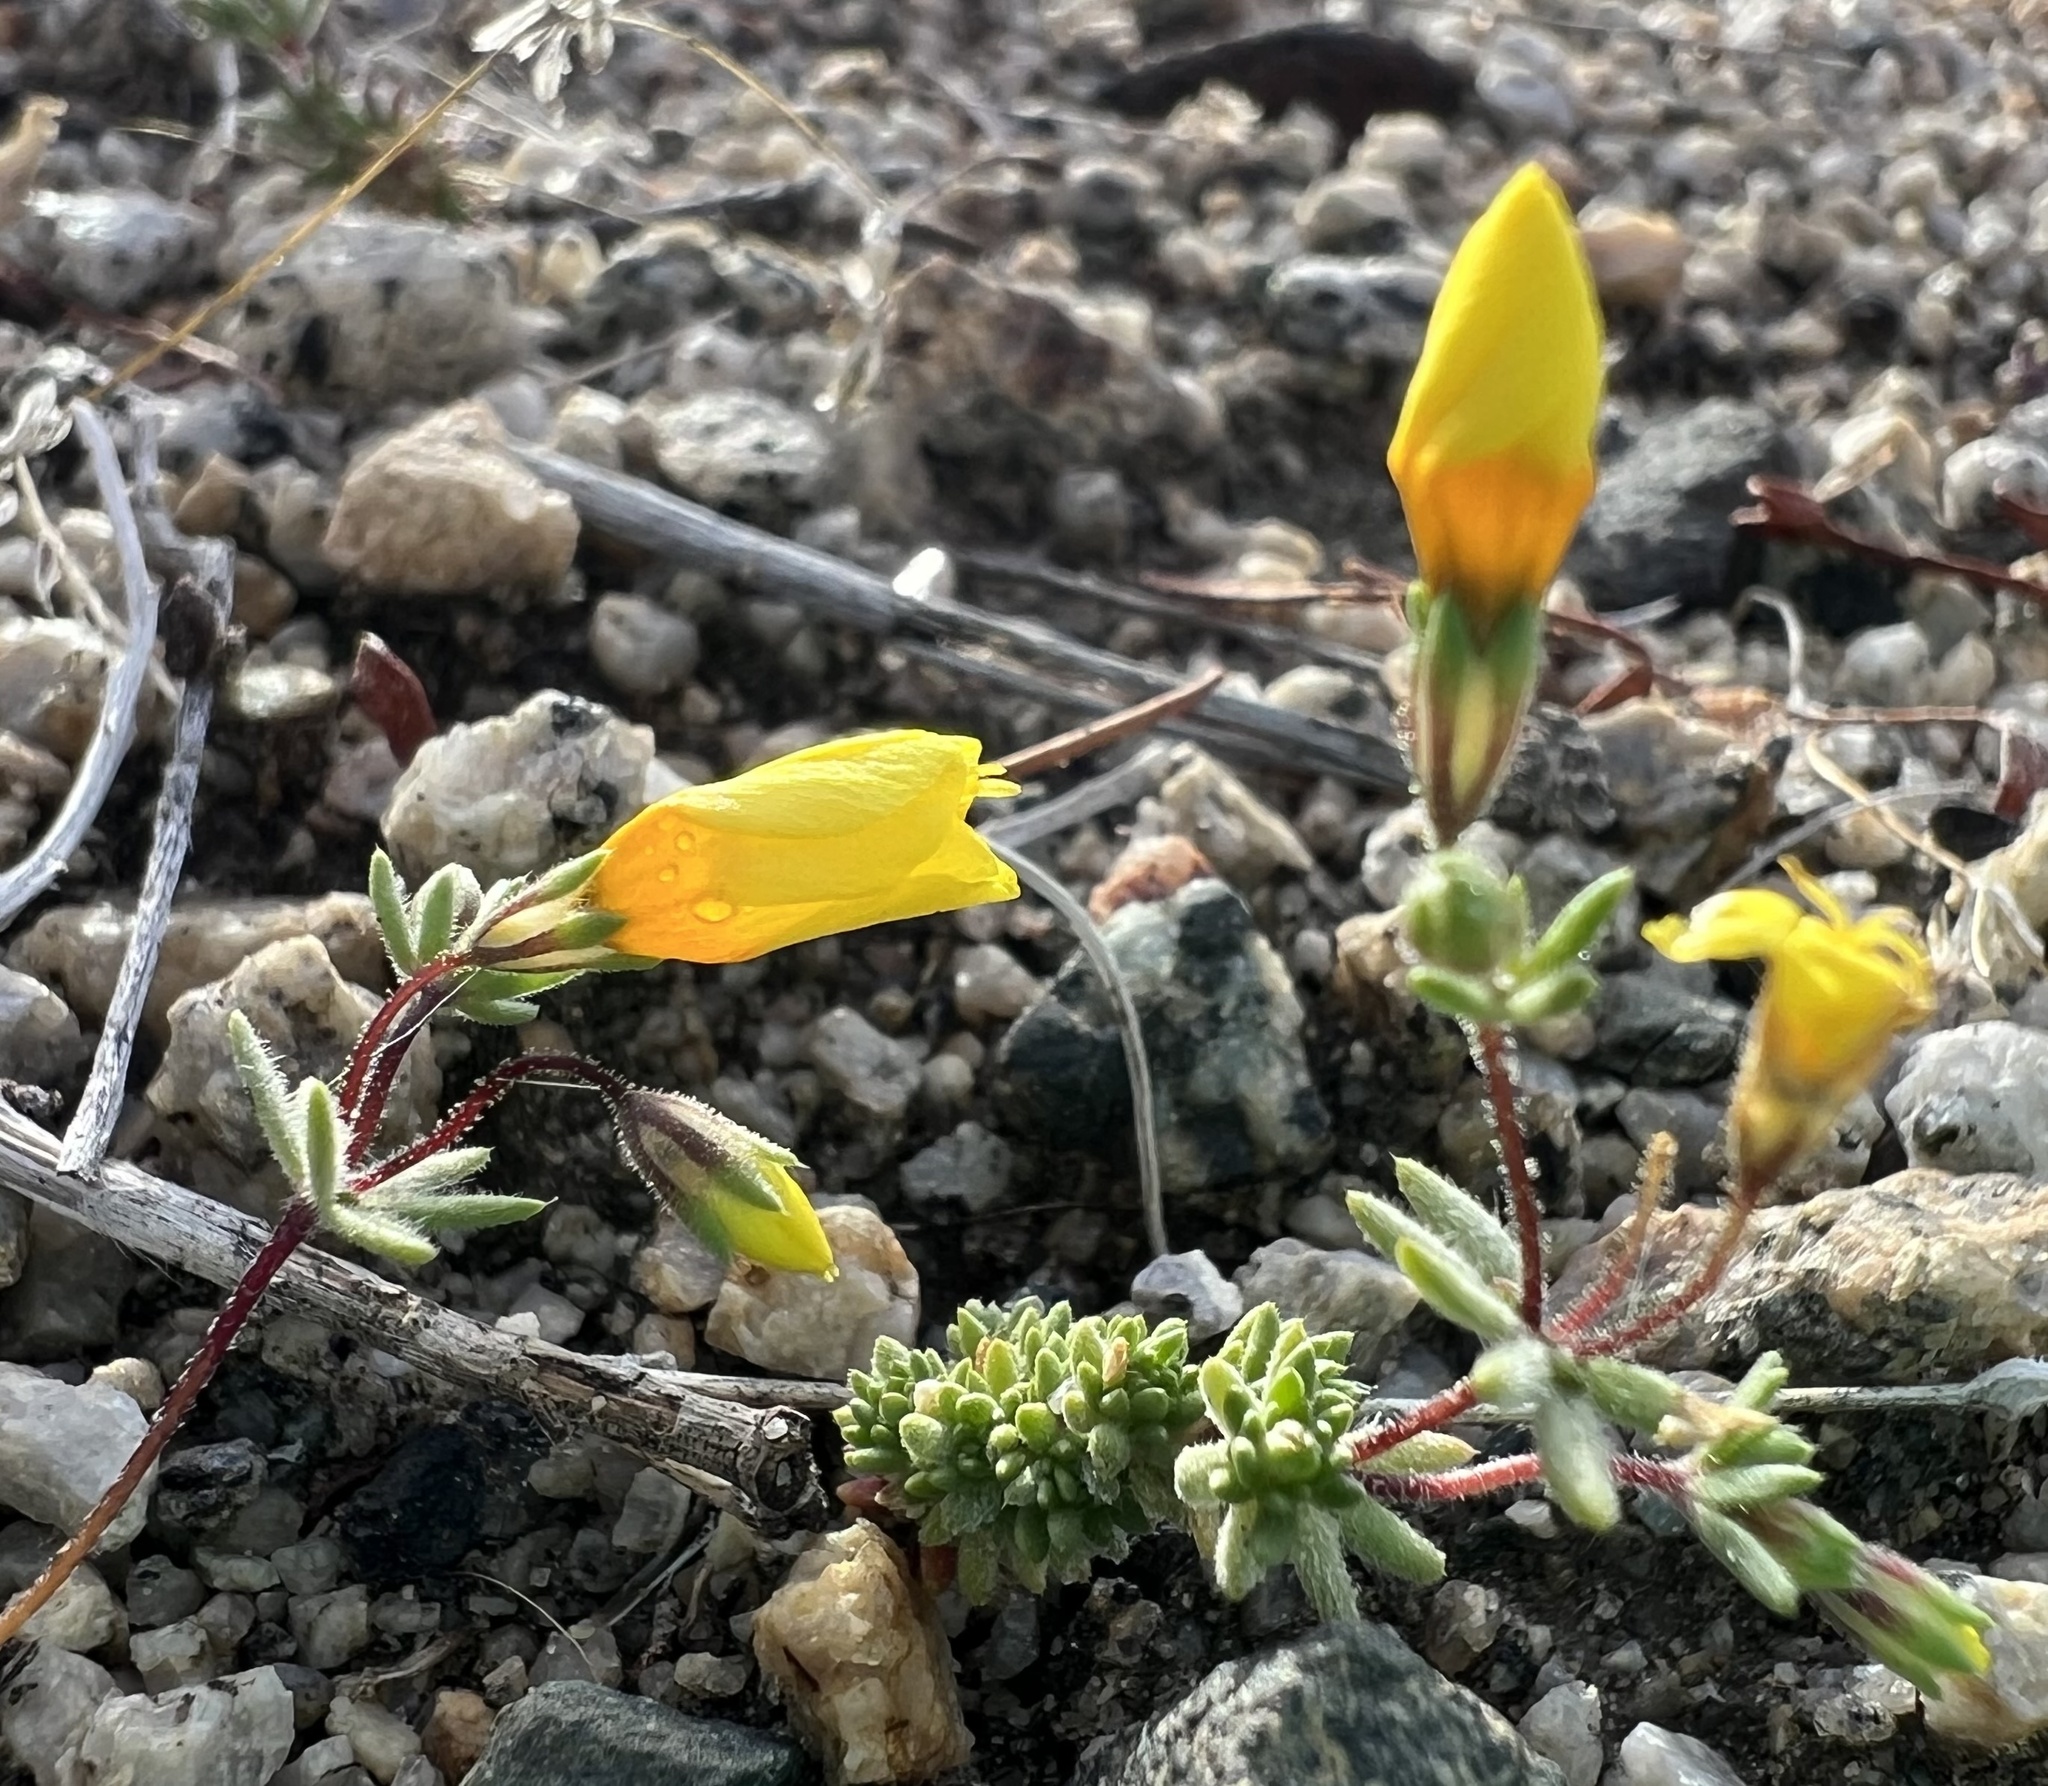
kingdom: Plantae
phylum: Tracheophyta
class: Magnoliopsida
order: Ericales
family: Polemoniaceae
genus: Leptosiphon
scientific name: Leptosiphon chrysanthus
